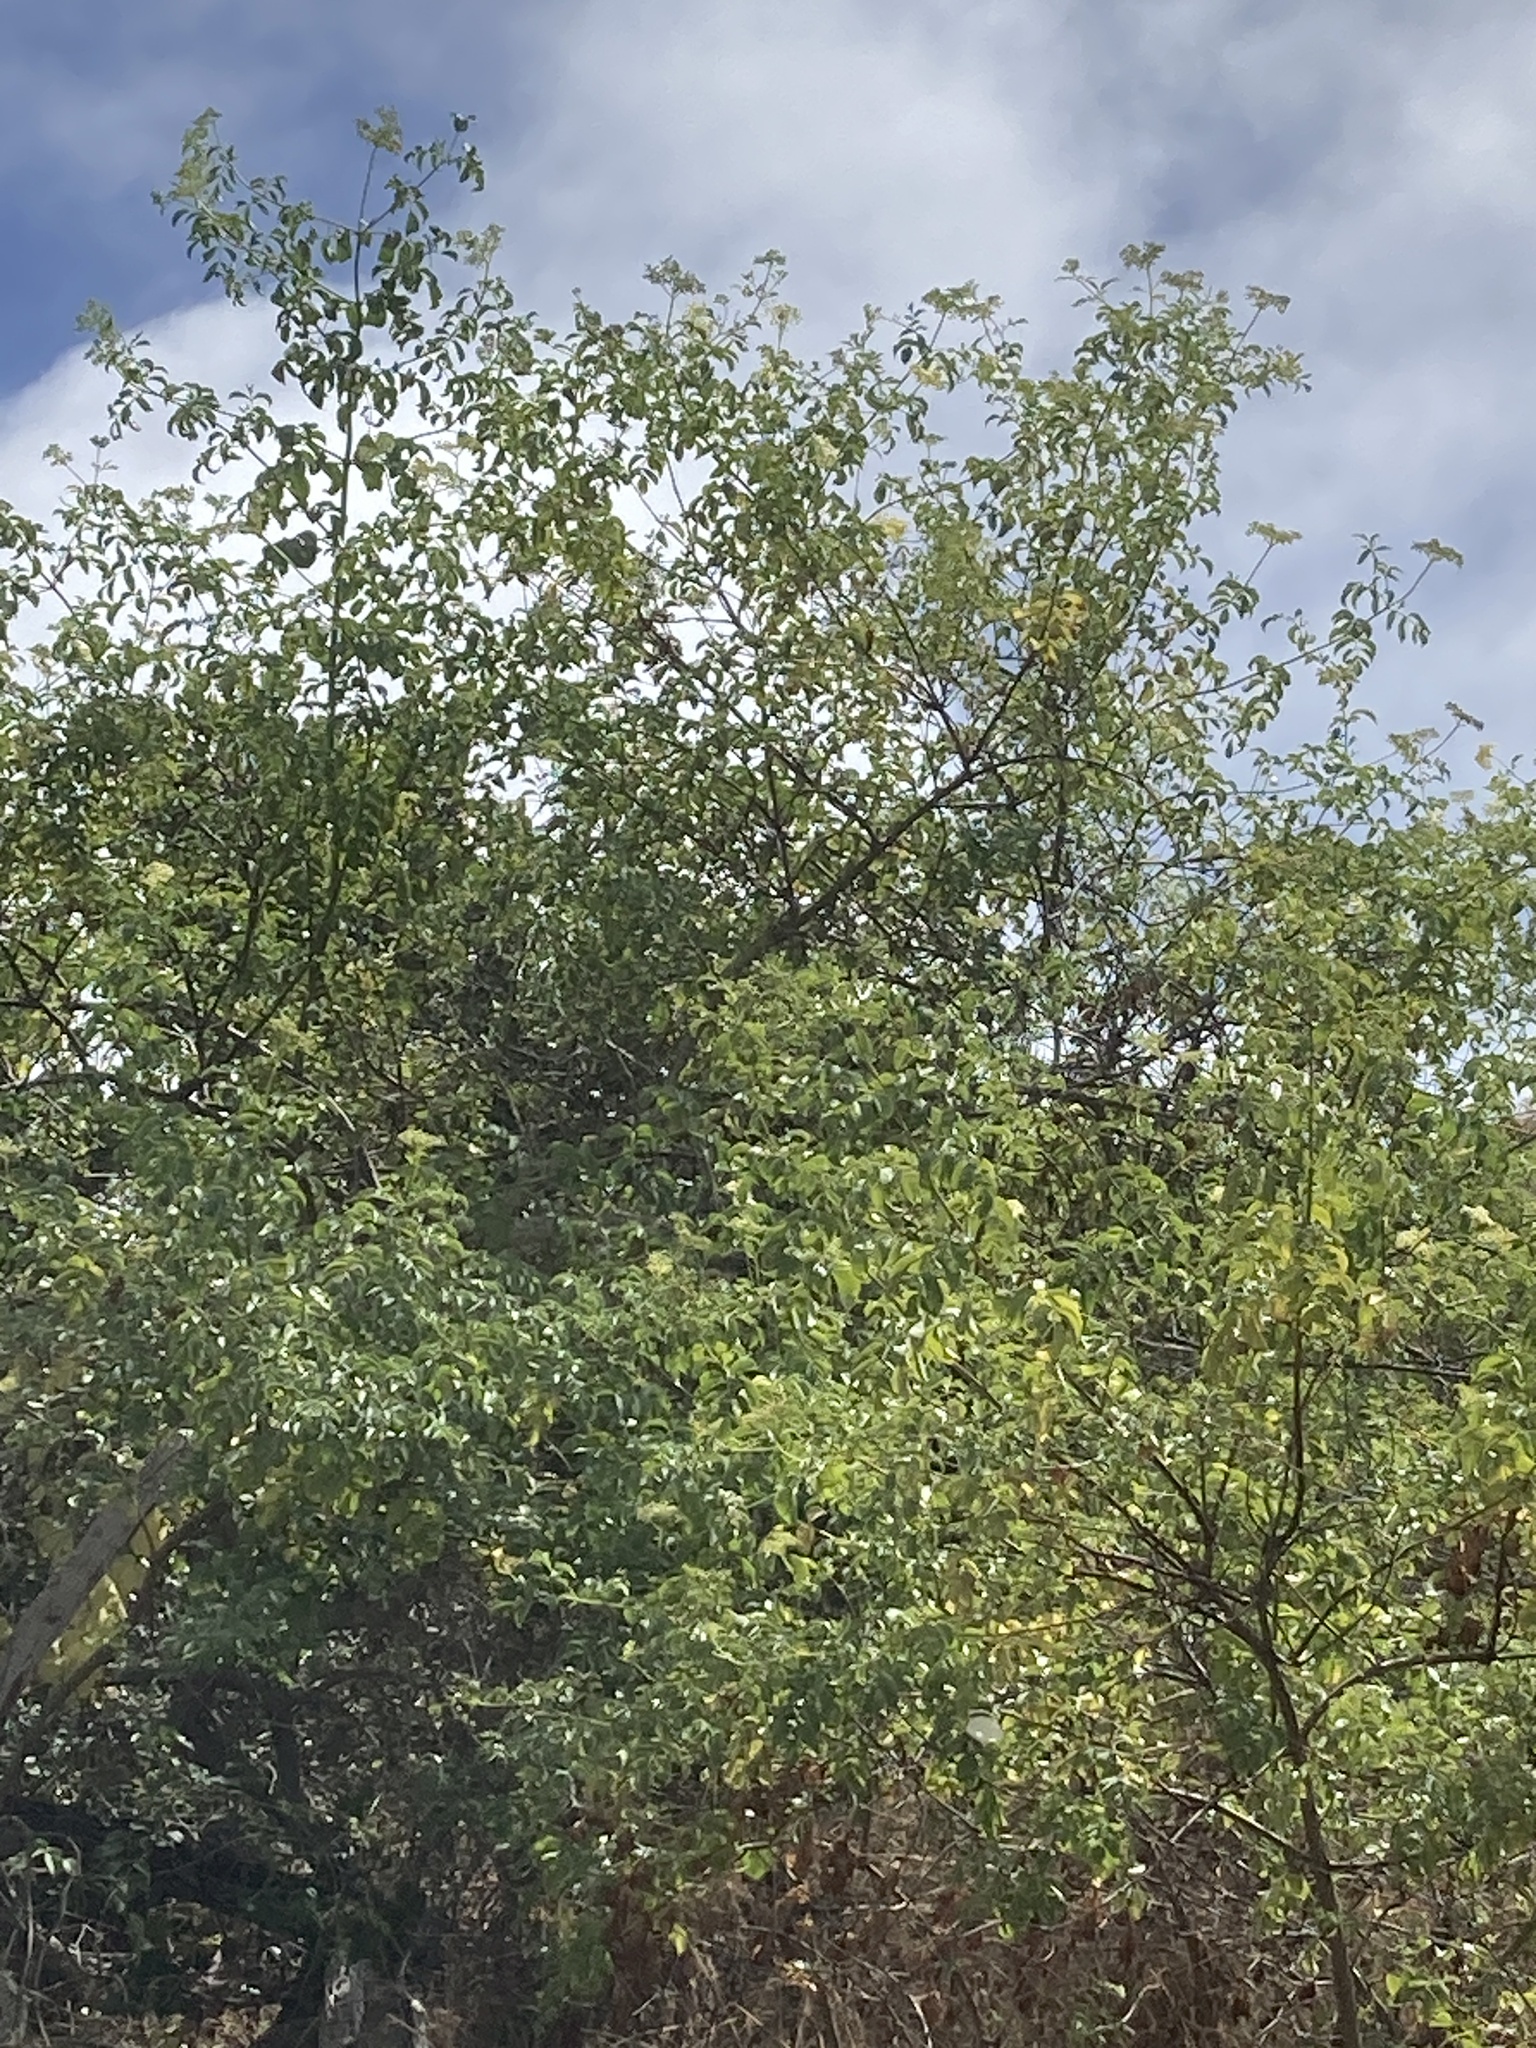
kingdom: Plantae
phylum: Tracheophyta
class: Magnoliopsida
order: Dipsacales
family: Viburnaceae
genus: Sambucus
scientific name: Sambucus cerulea
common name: Blue elder
